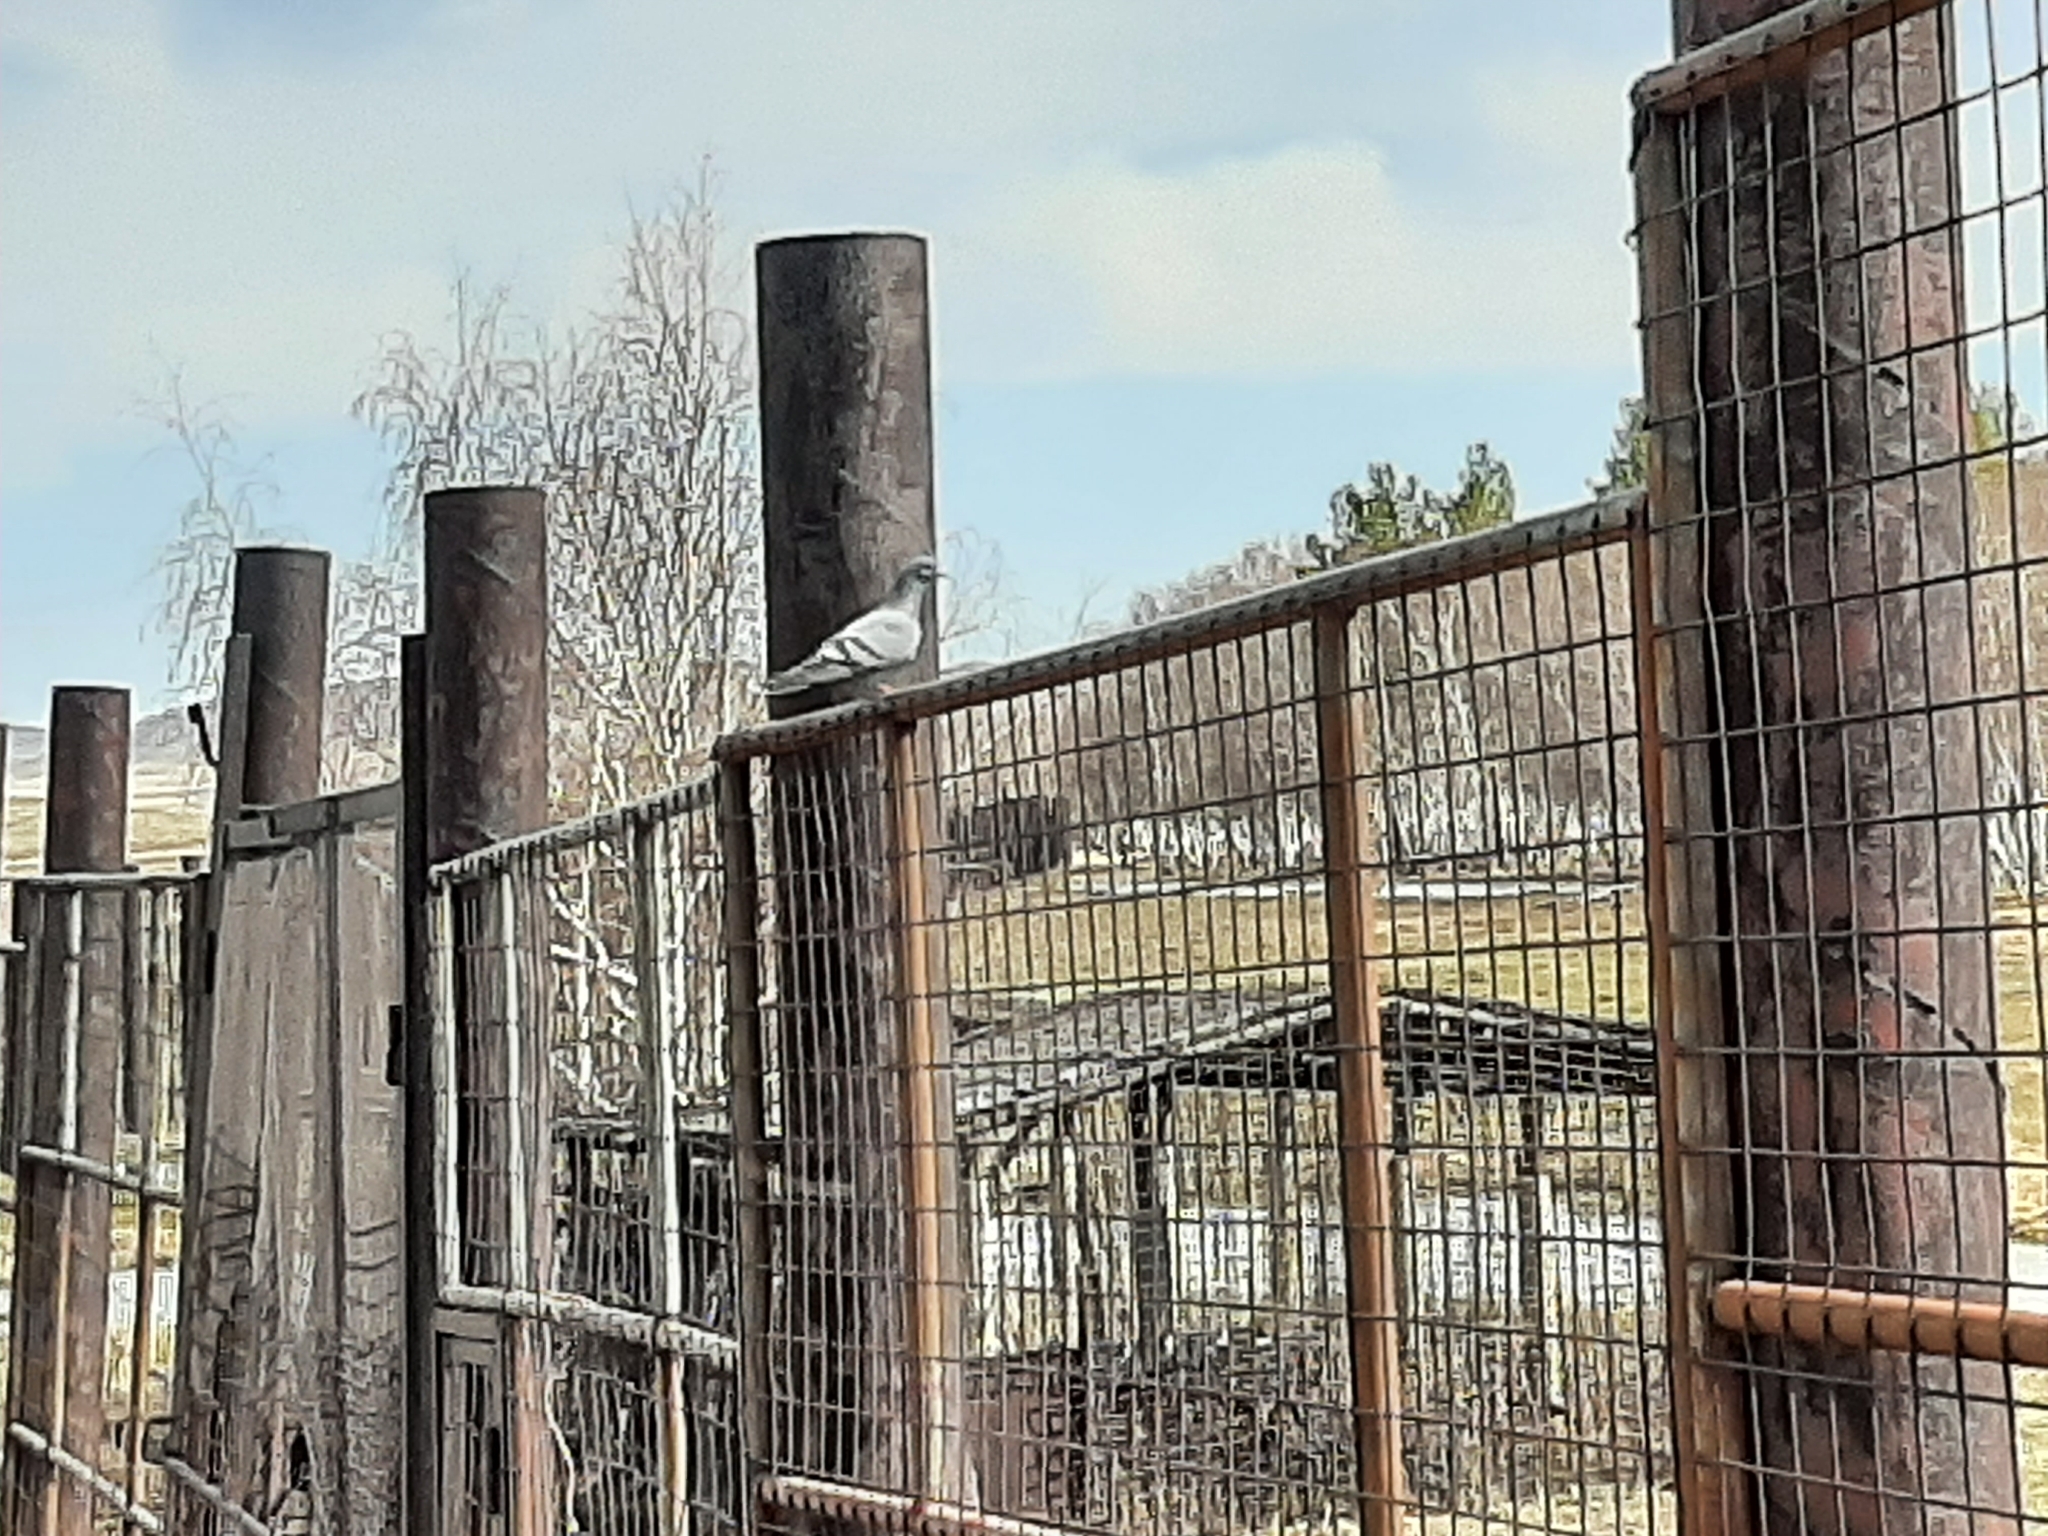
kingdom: Animalia
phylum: Chordata
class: Aves
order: Columbiformes
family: Columbidae
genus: Columba
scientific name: Columba livia
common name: Rock pigeon
